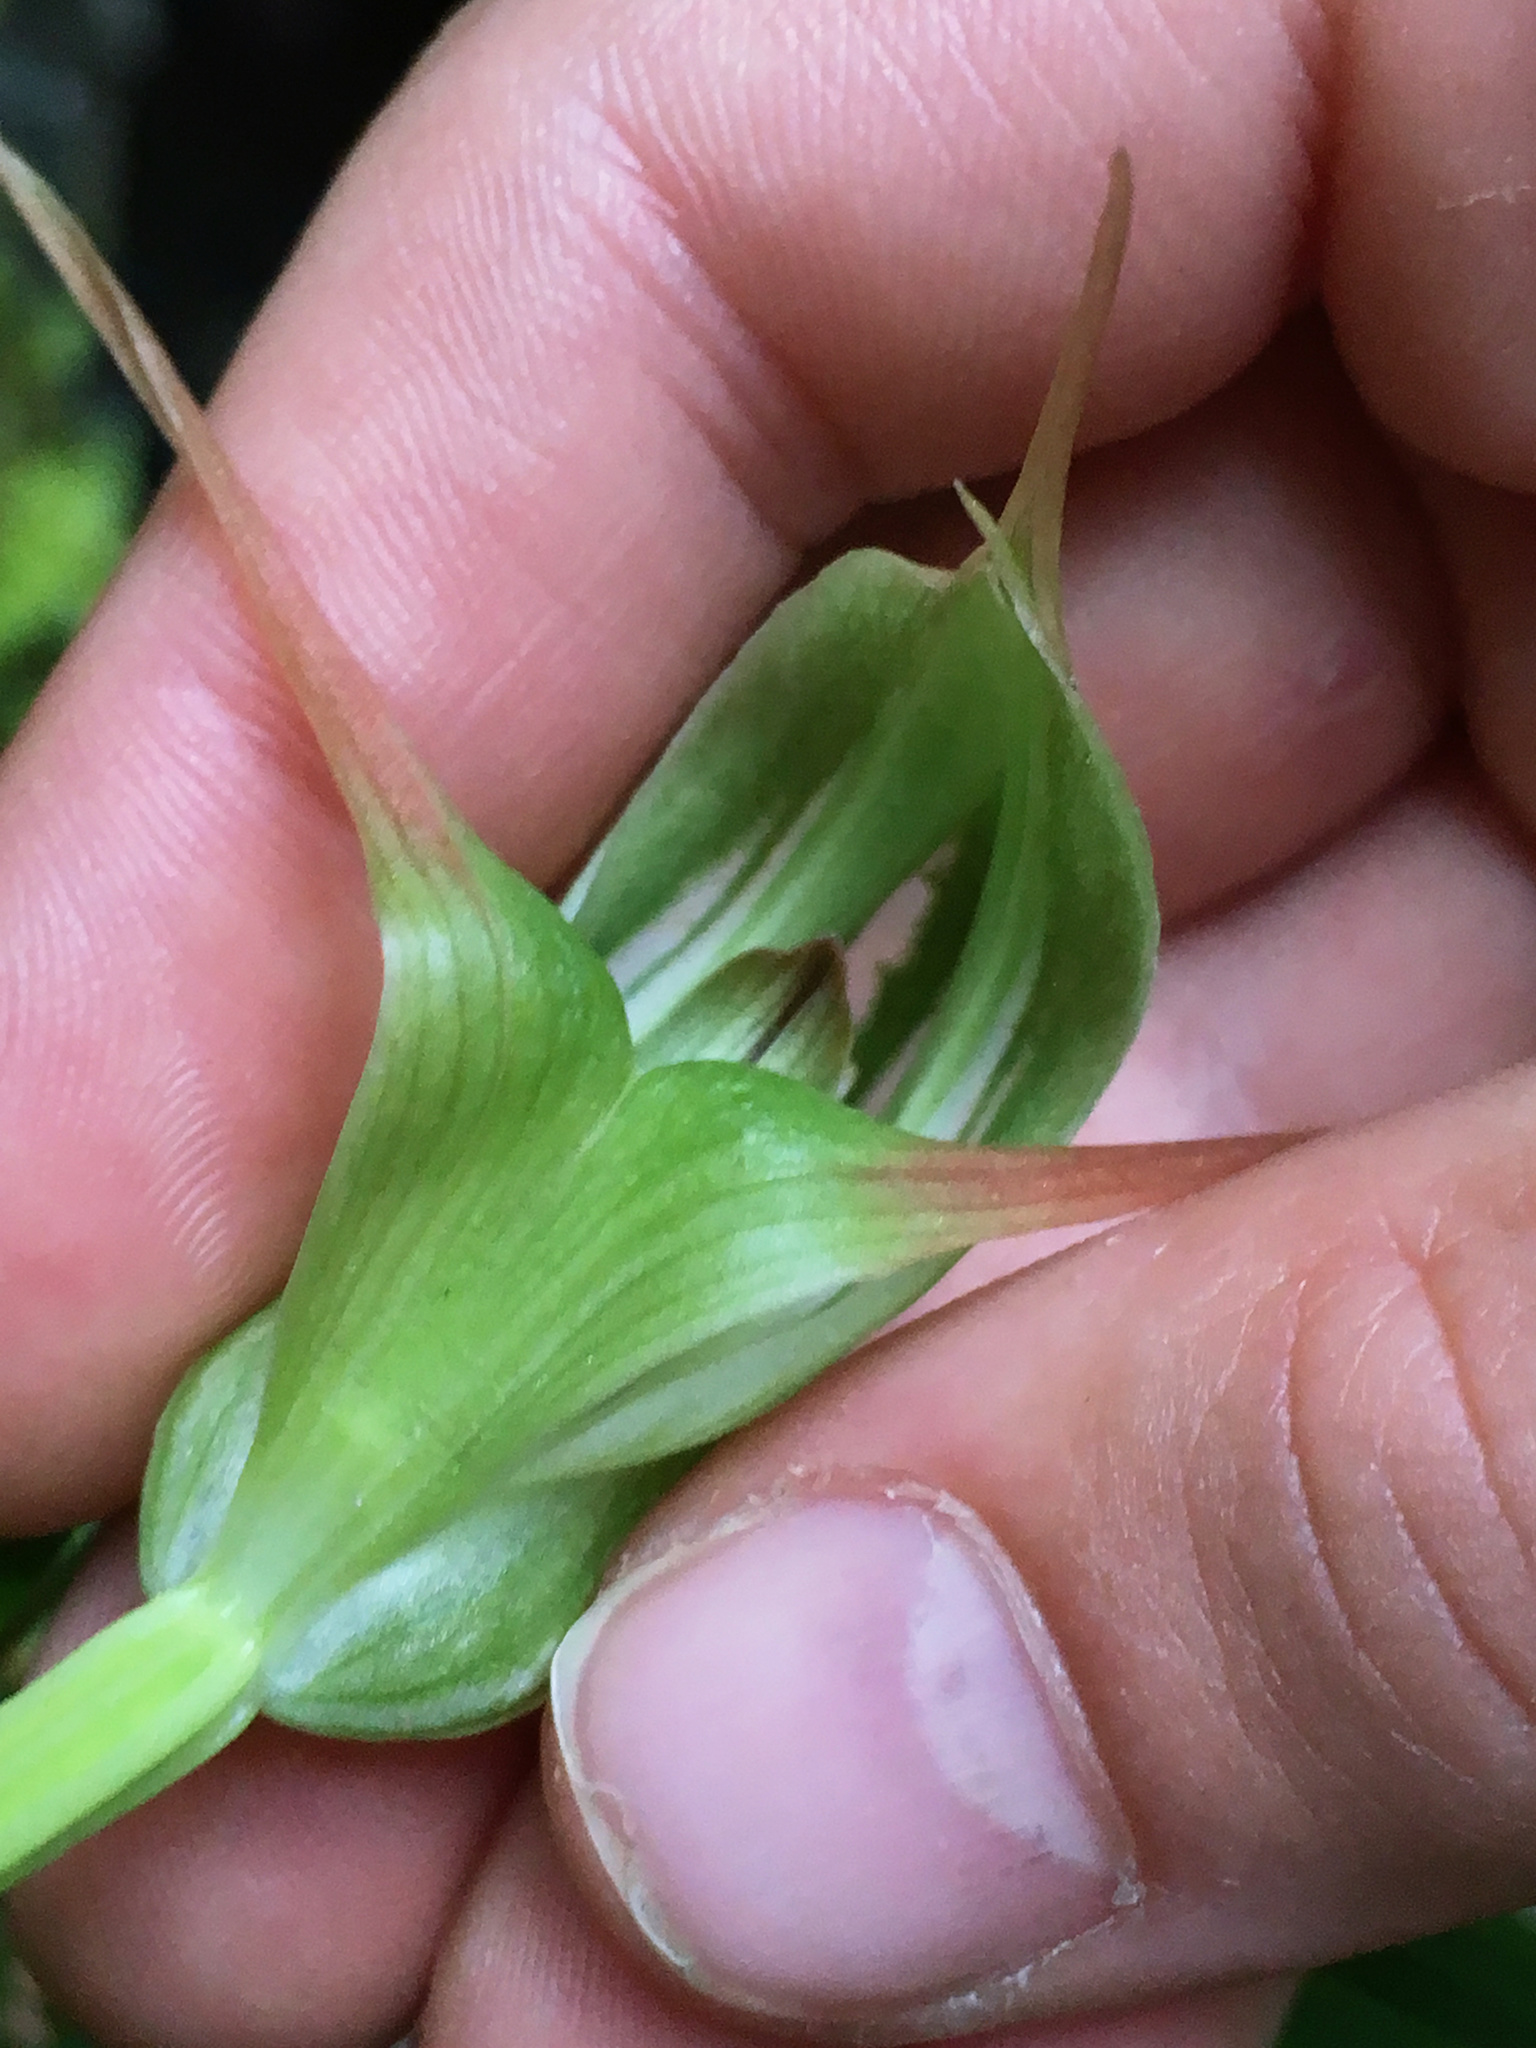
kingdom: Plantae
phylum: Tracheophyta
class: Liliopsida
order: Asparagales
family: Orchidaceae
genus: Pterostylis
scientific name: Pterostylis banksii
